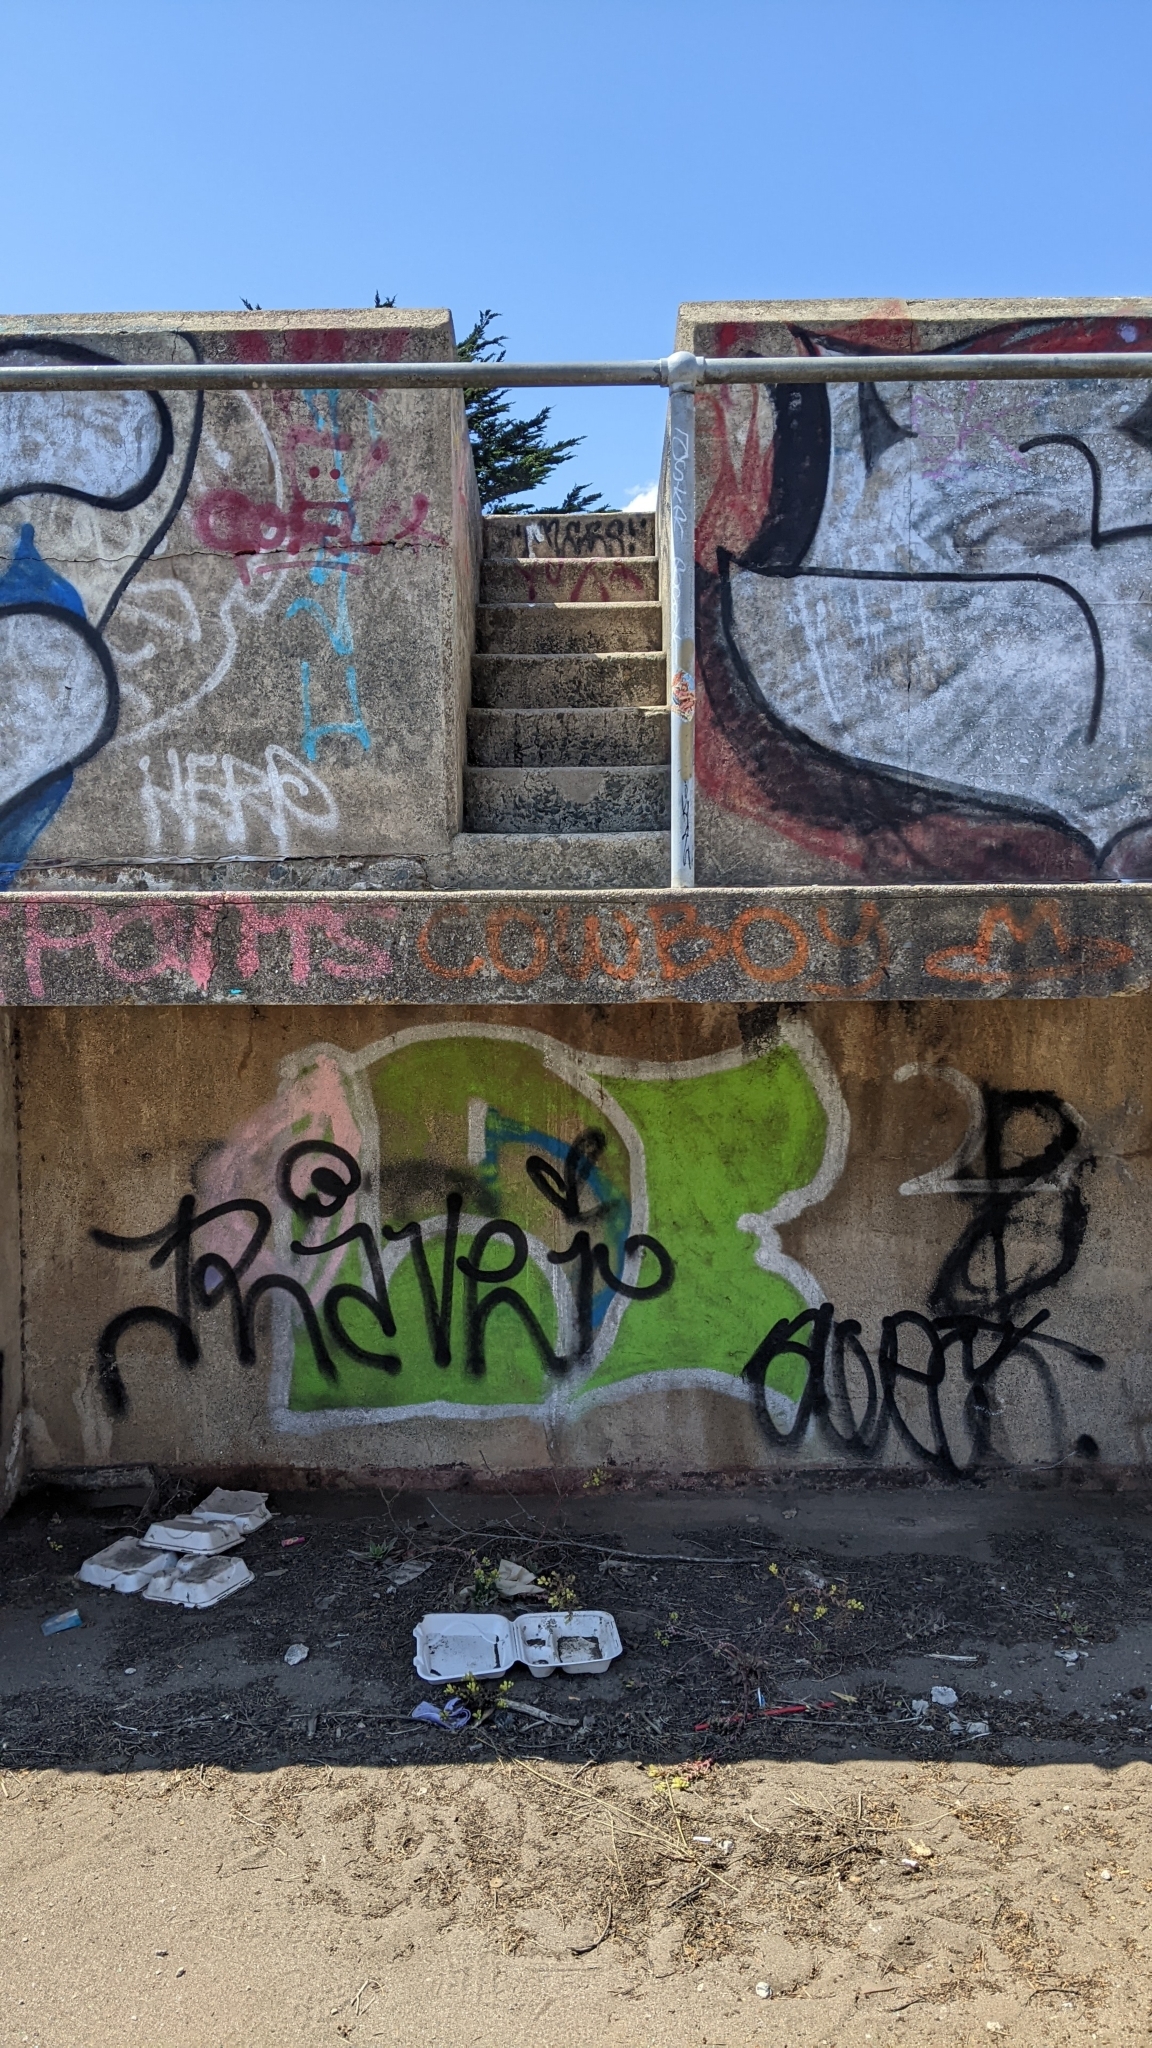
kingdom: Plantae
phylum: Tracheophyta
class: Magnoliopsida
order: Saxifragales
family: Crassulaceae
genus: Dudleya
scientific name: Dudleya farinosa
